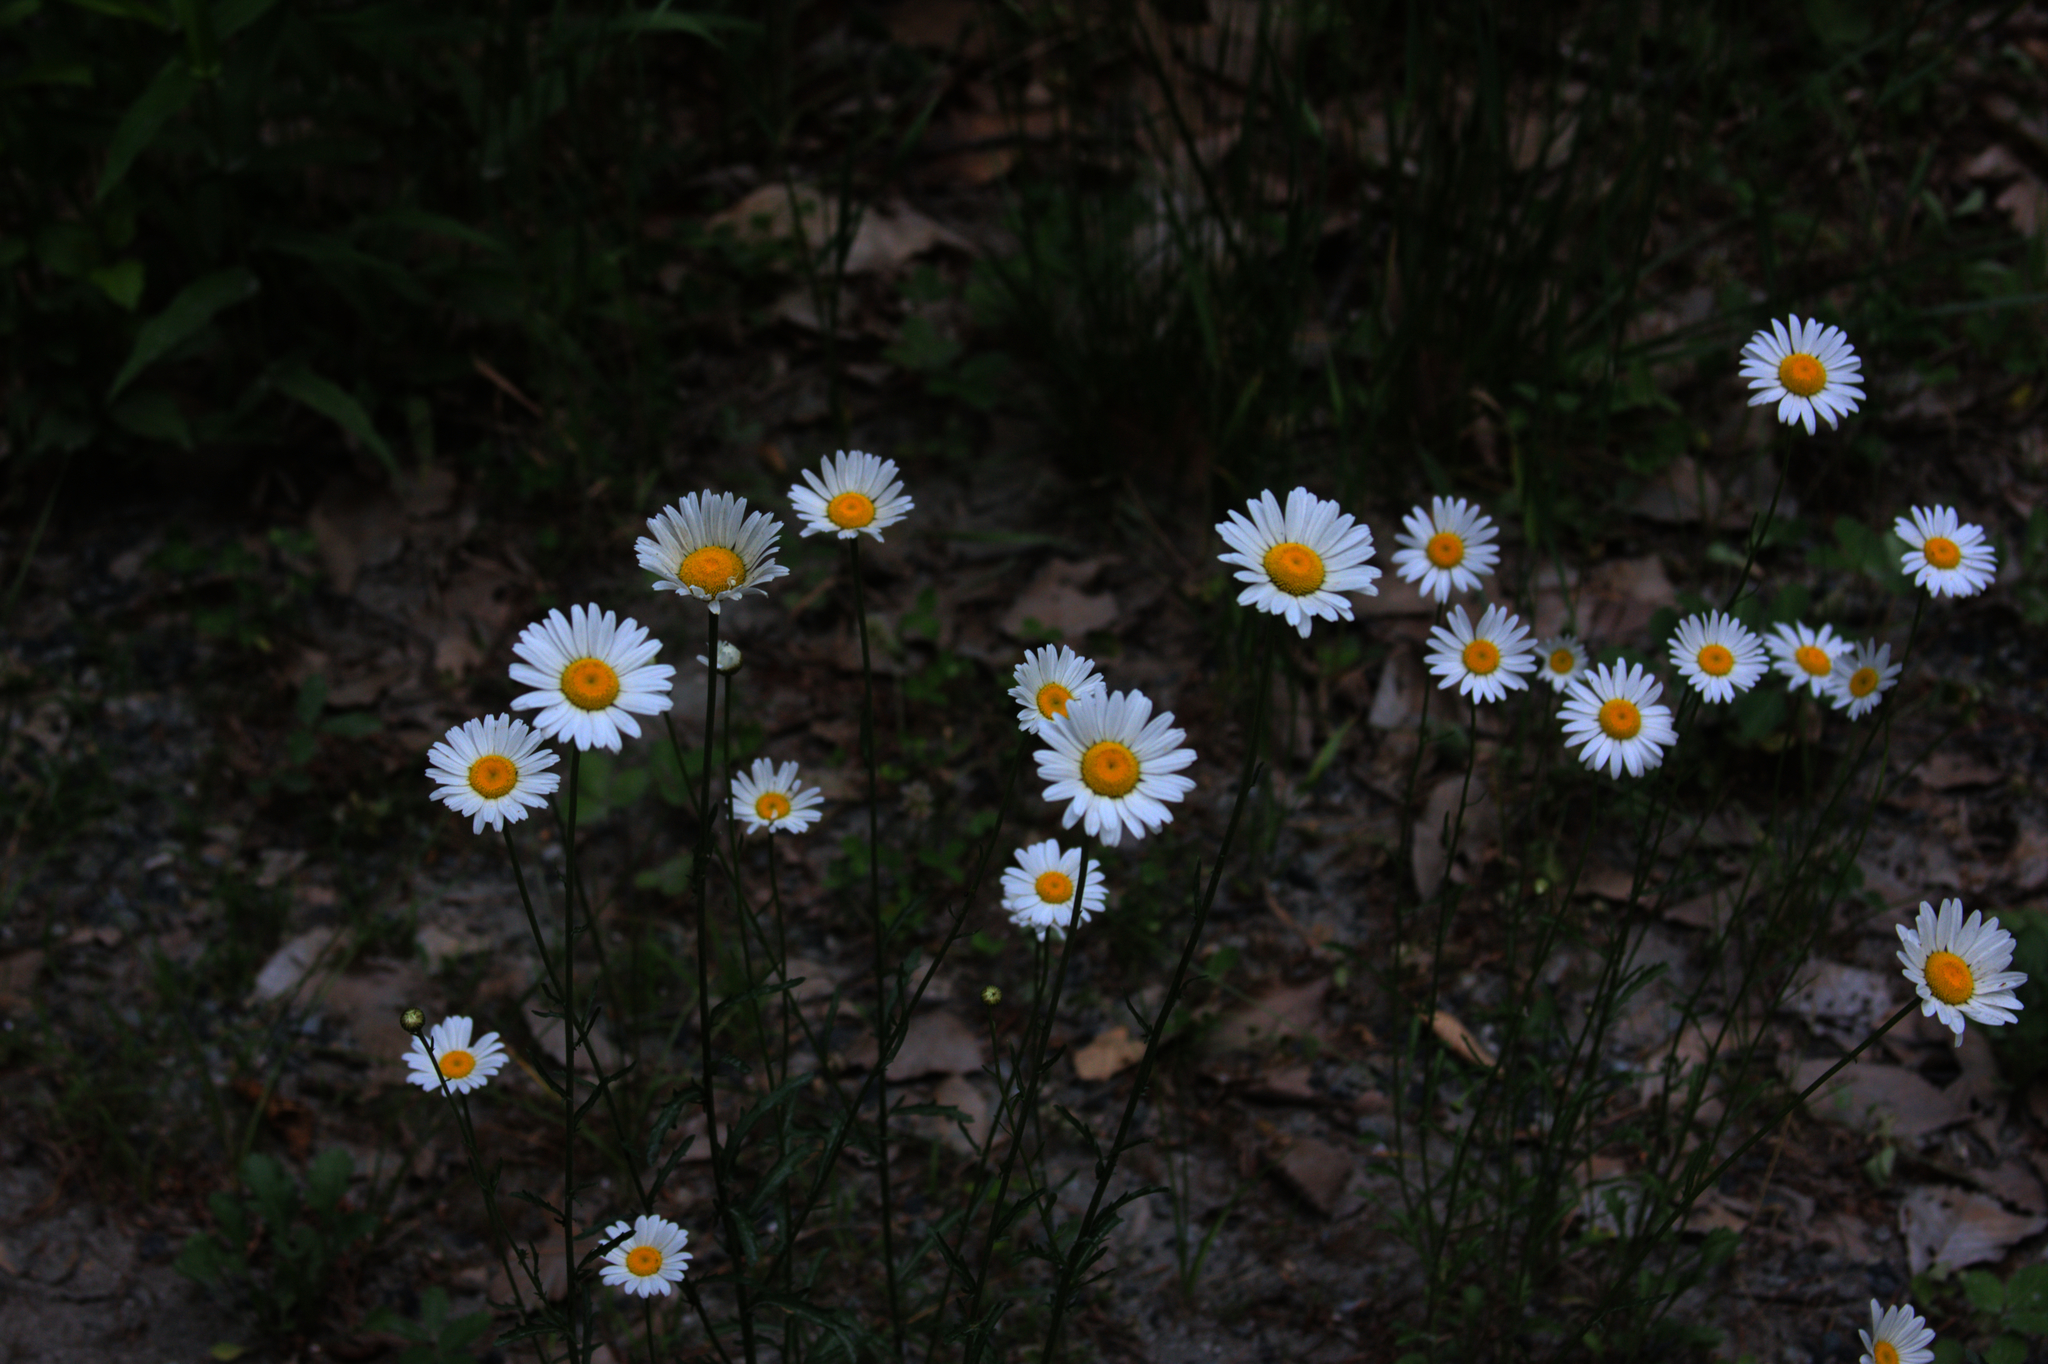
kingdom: Plantae
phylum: Tracheophyta
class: Magnoliopsida
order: Asterales
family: Asteraceae
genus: Leucanthemum
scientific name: Leucanthemum vulgare
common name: Oxeye daisy
